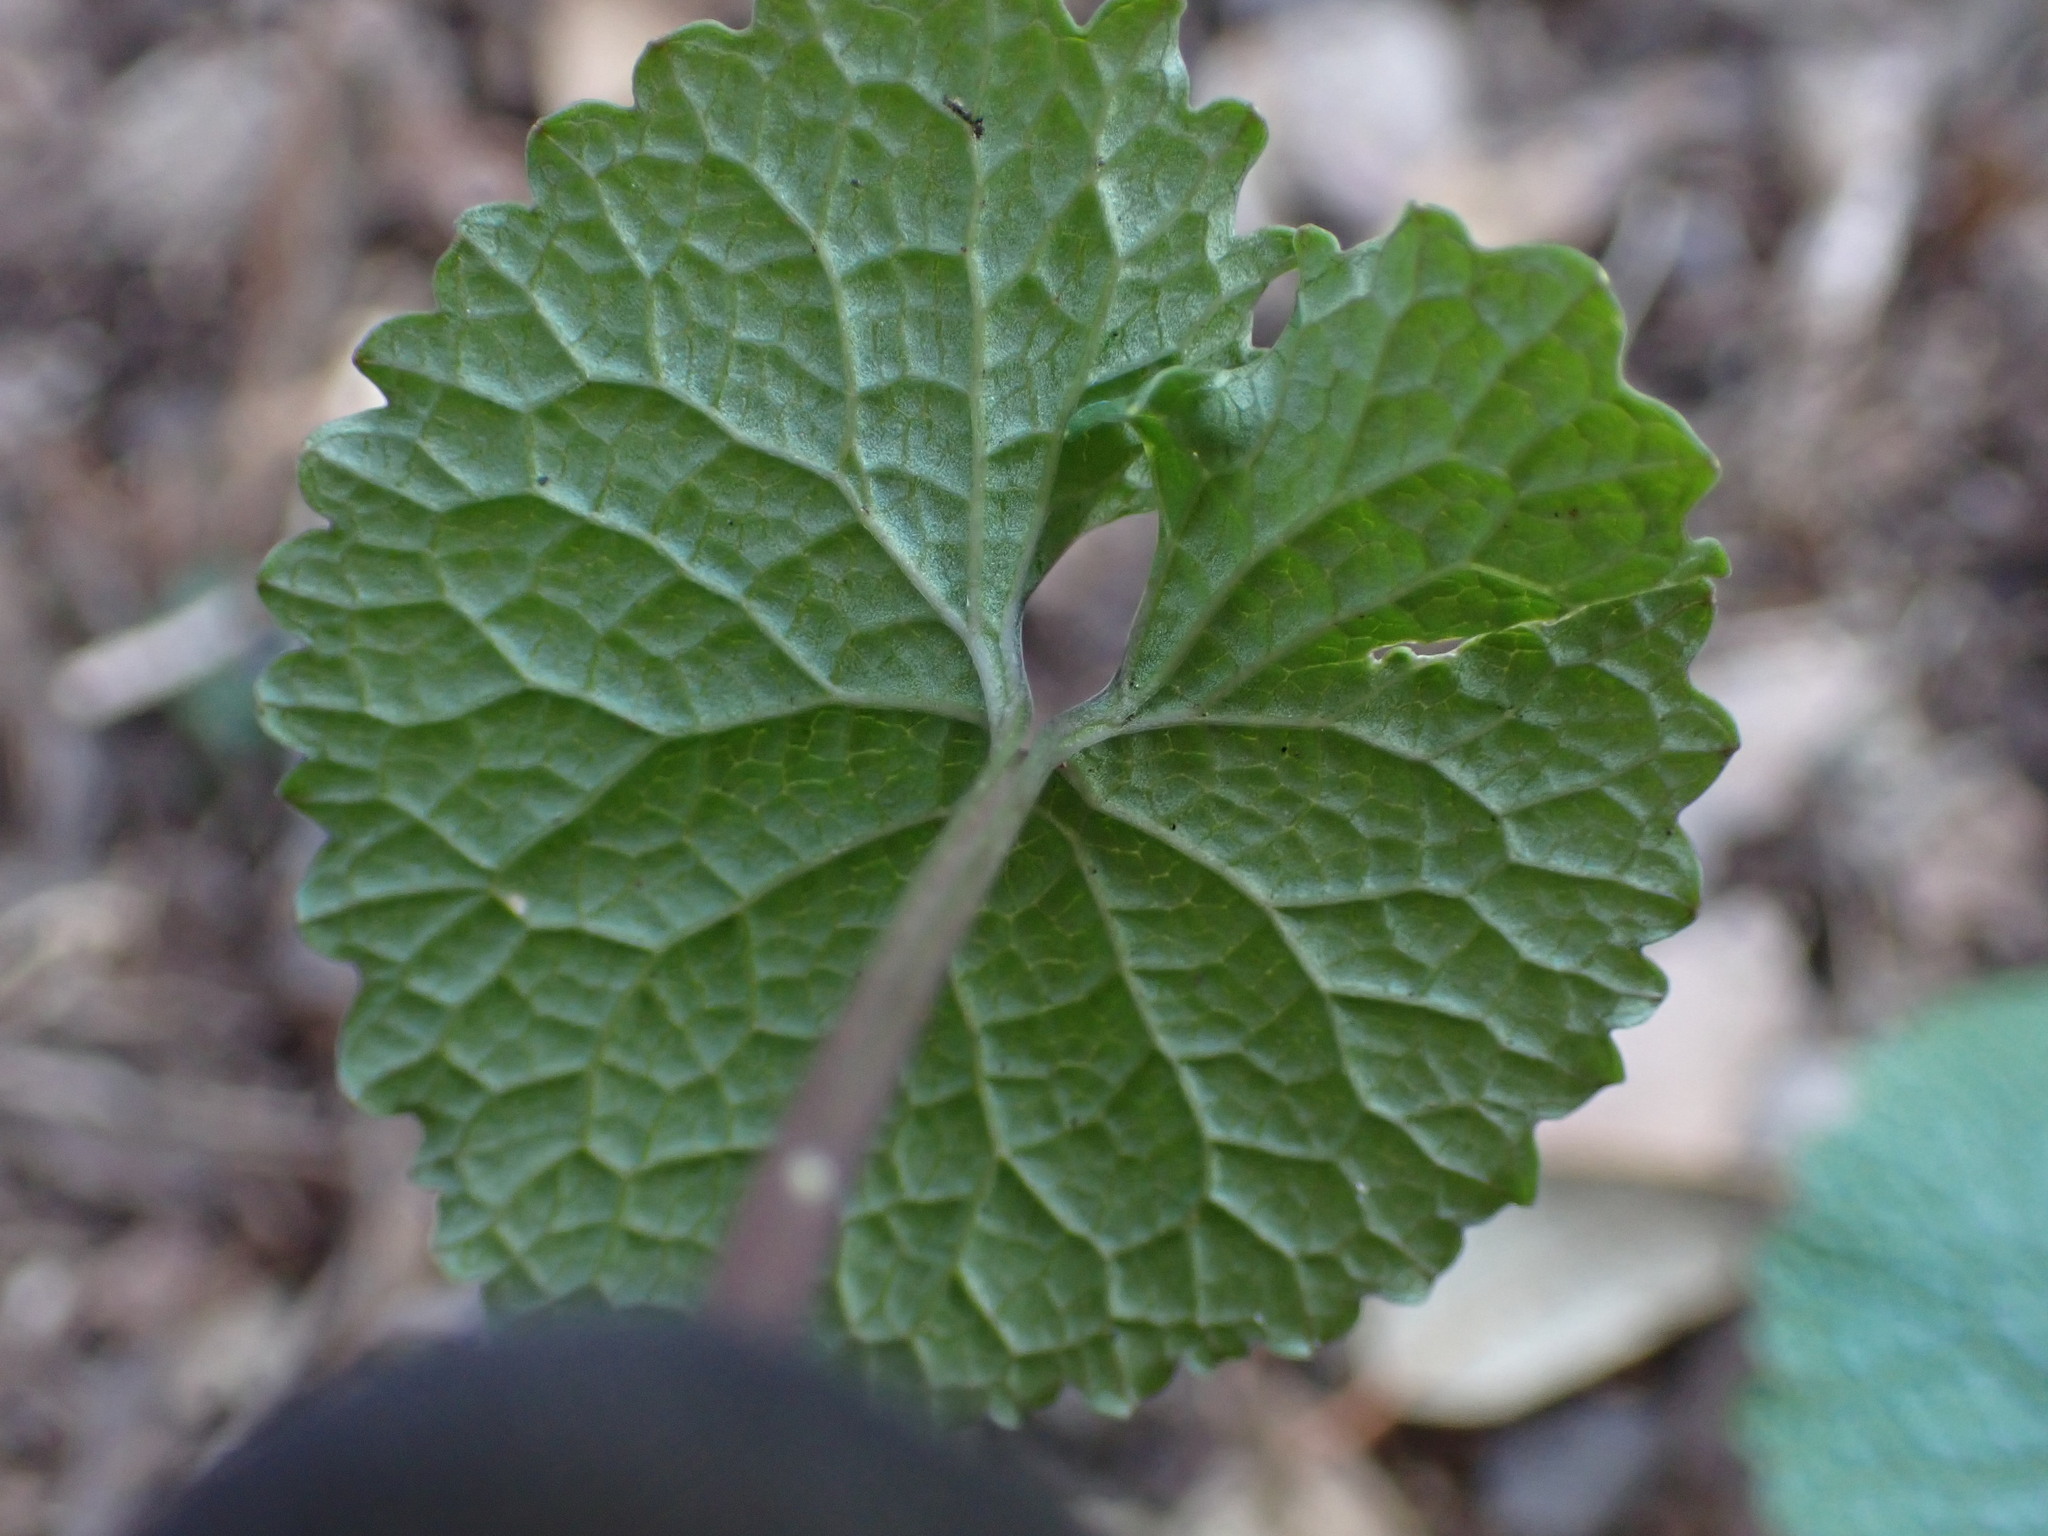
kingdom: Plantae
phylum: Tracheophyta
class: Magnoliopsida
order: Brassicales
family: Brassicaceae
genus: Alliaria
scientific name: Alliaria petiolata
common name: Garlic mustard
